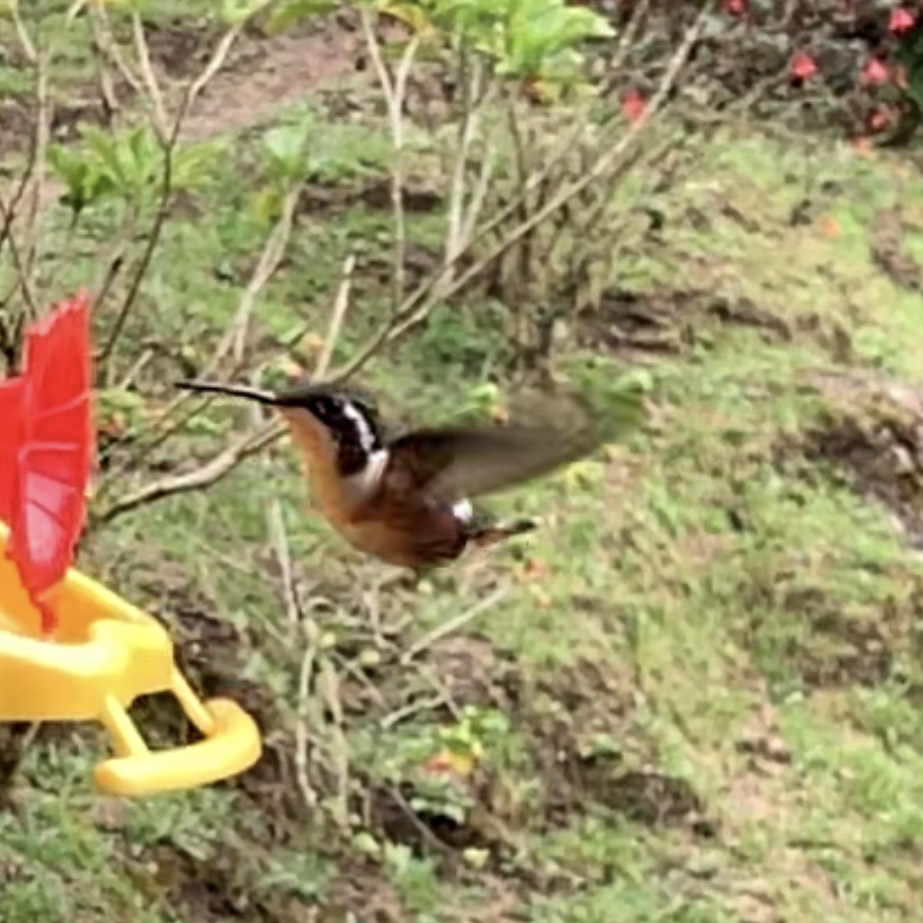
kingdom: Animalia
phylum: Chordata
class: Aves
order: Apodiformes
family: Trochilidae
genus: Chaetocercus
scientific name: Chaetocercus mulsant
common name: White-bellied woodstar
